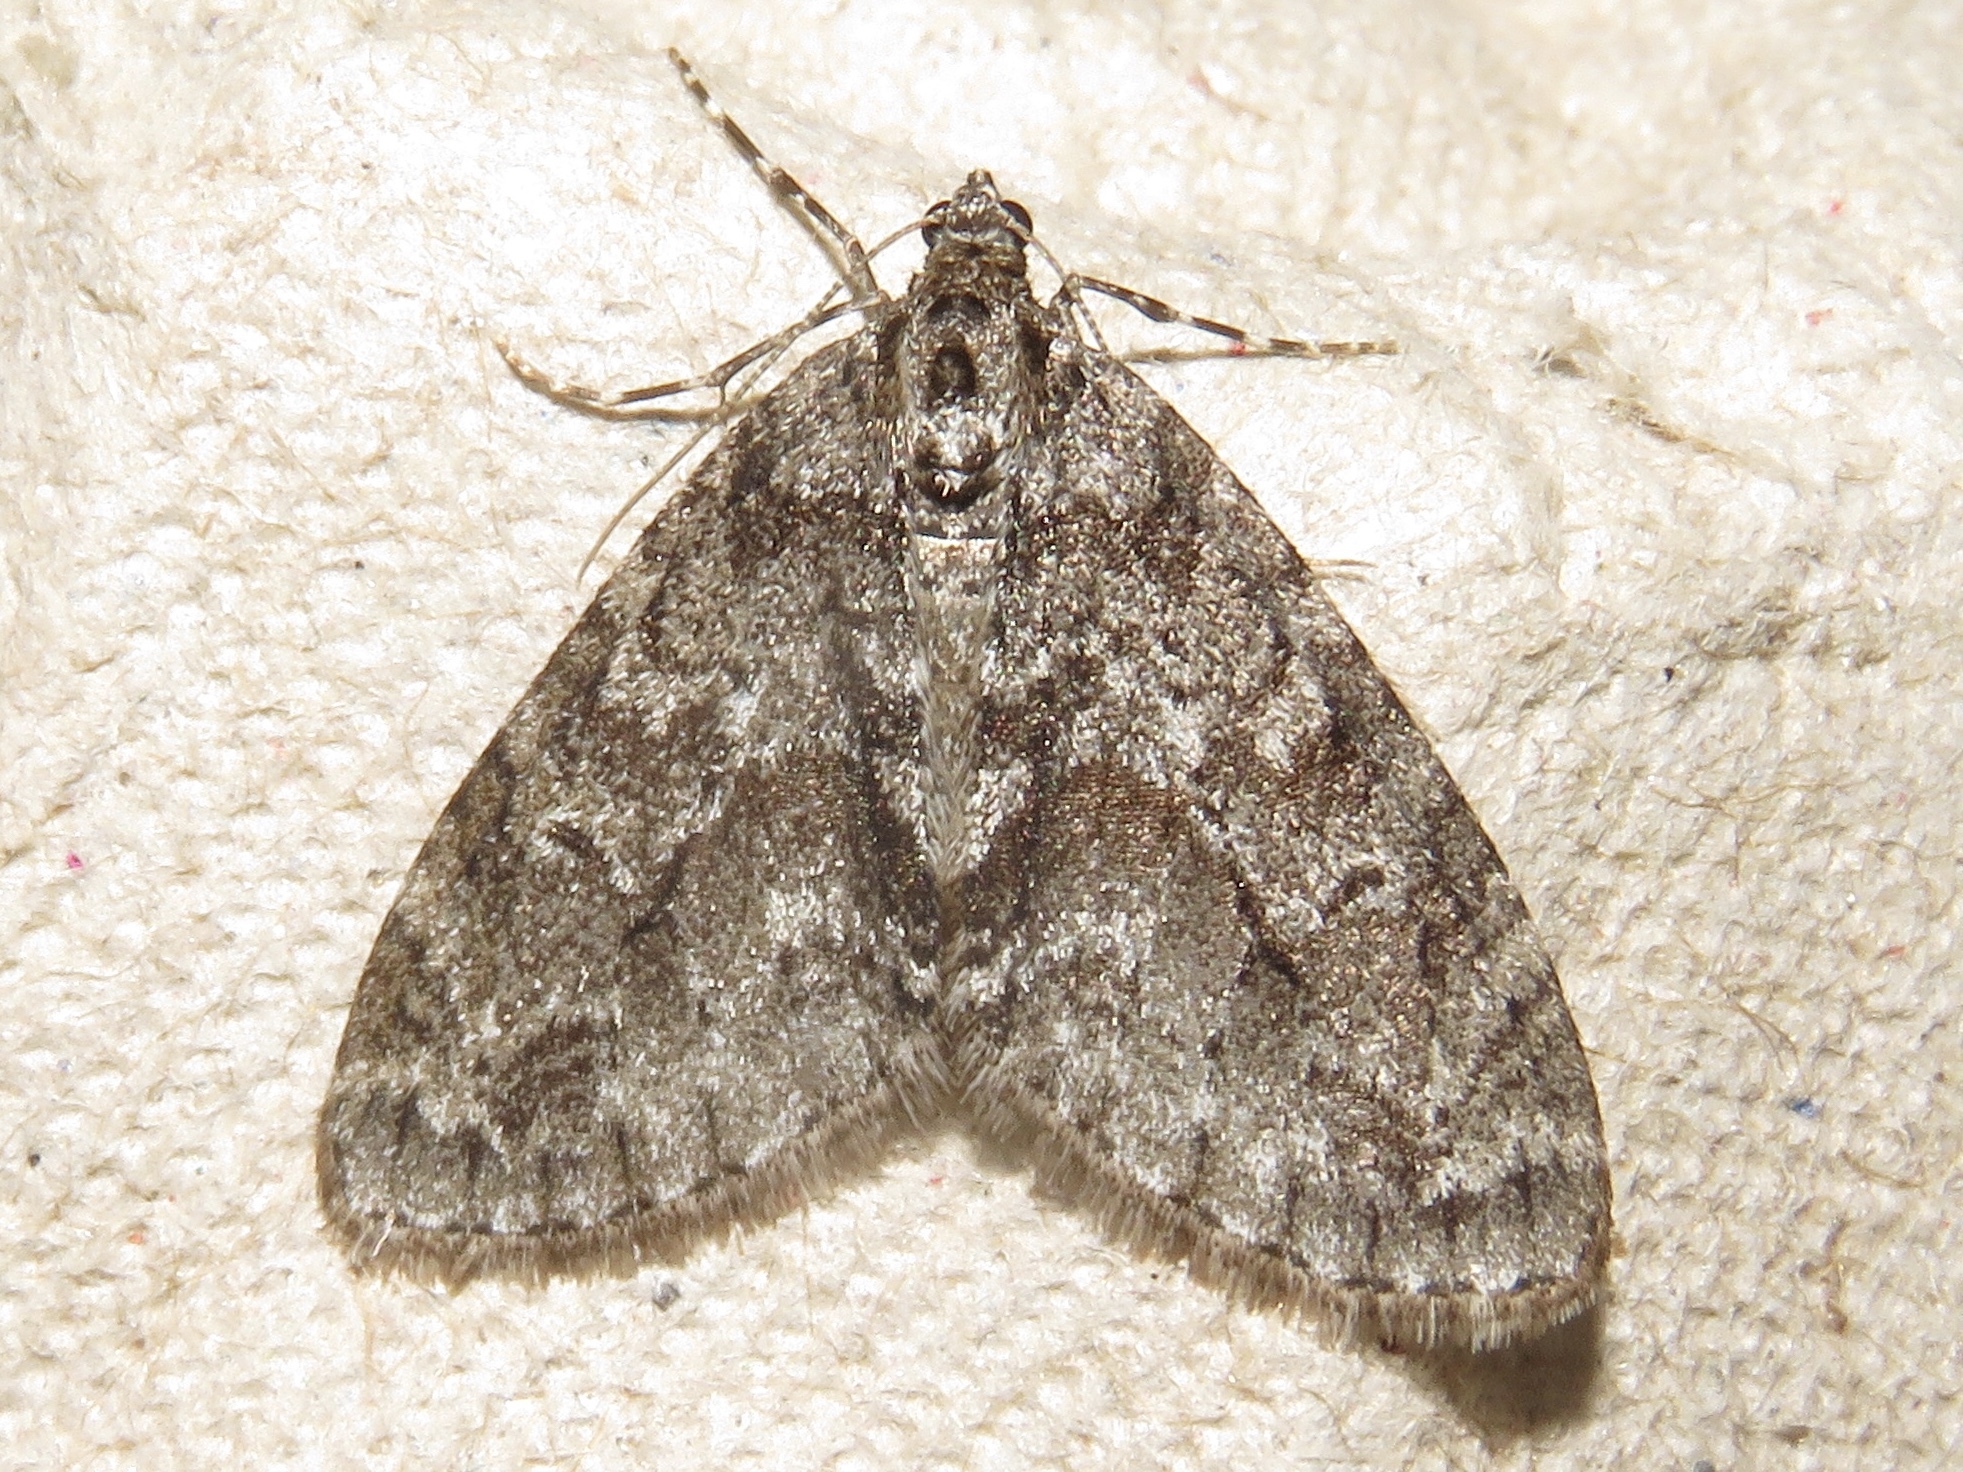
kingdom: Animalia
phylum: Arthropoda
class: Insecta
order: Lepidoptera
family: Geometridae
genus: Cladara
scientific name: Cladara limitaria
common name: Mottled gray carpet
